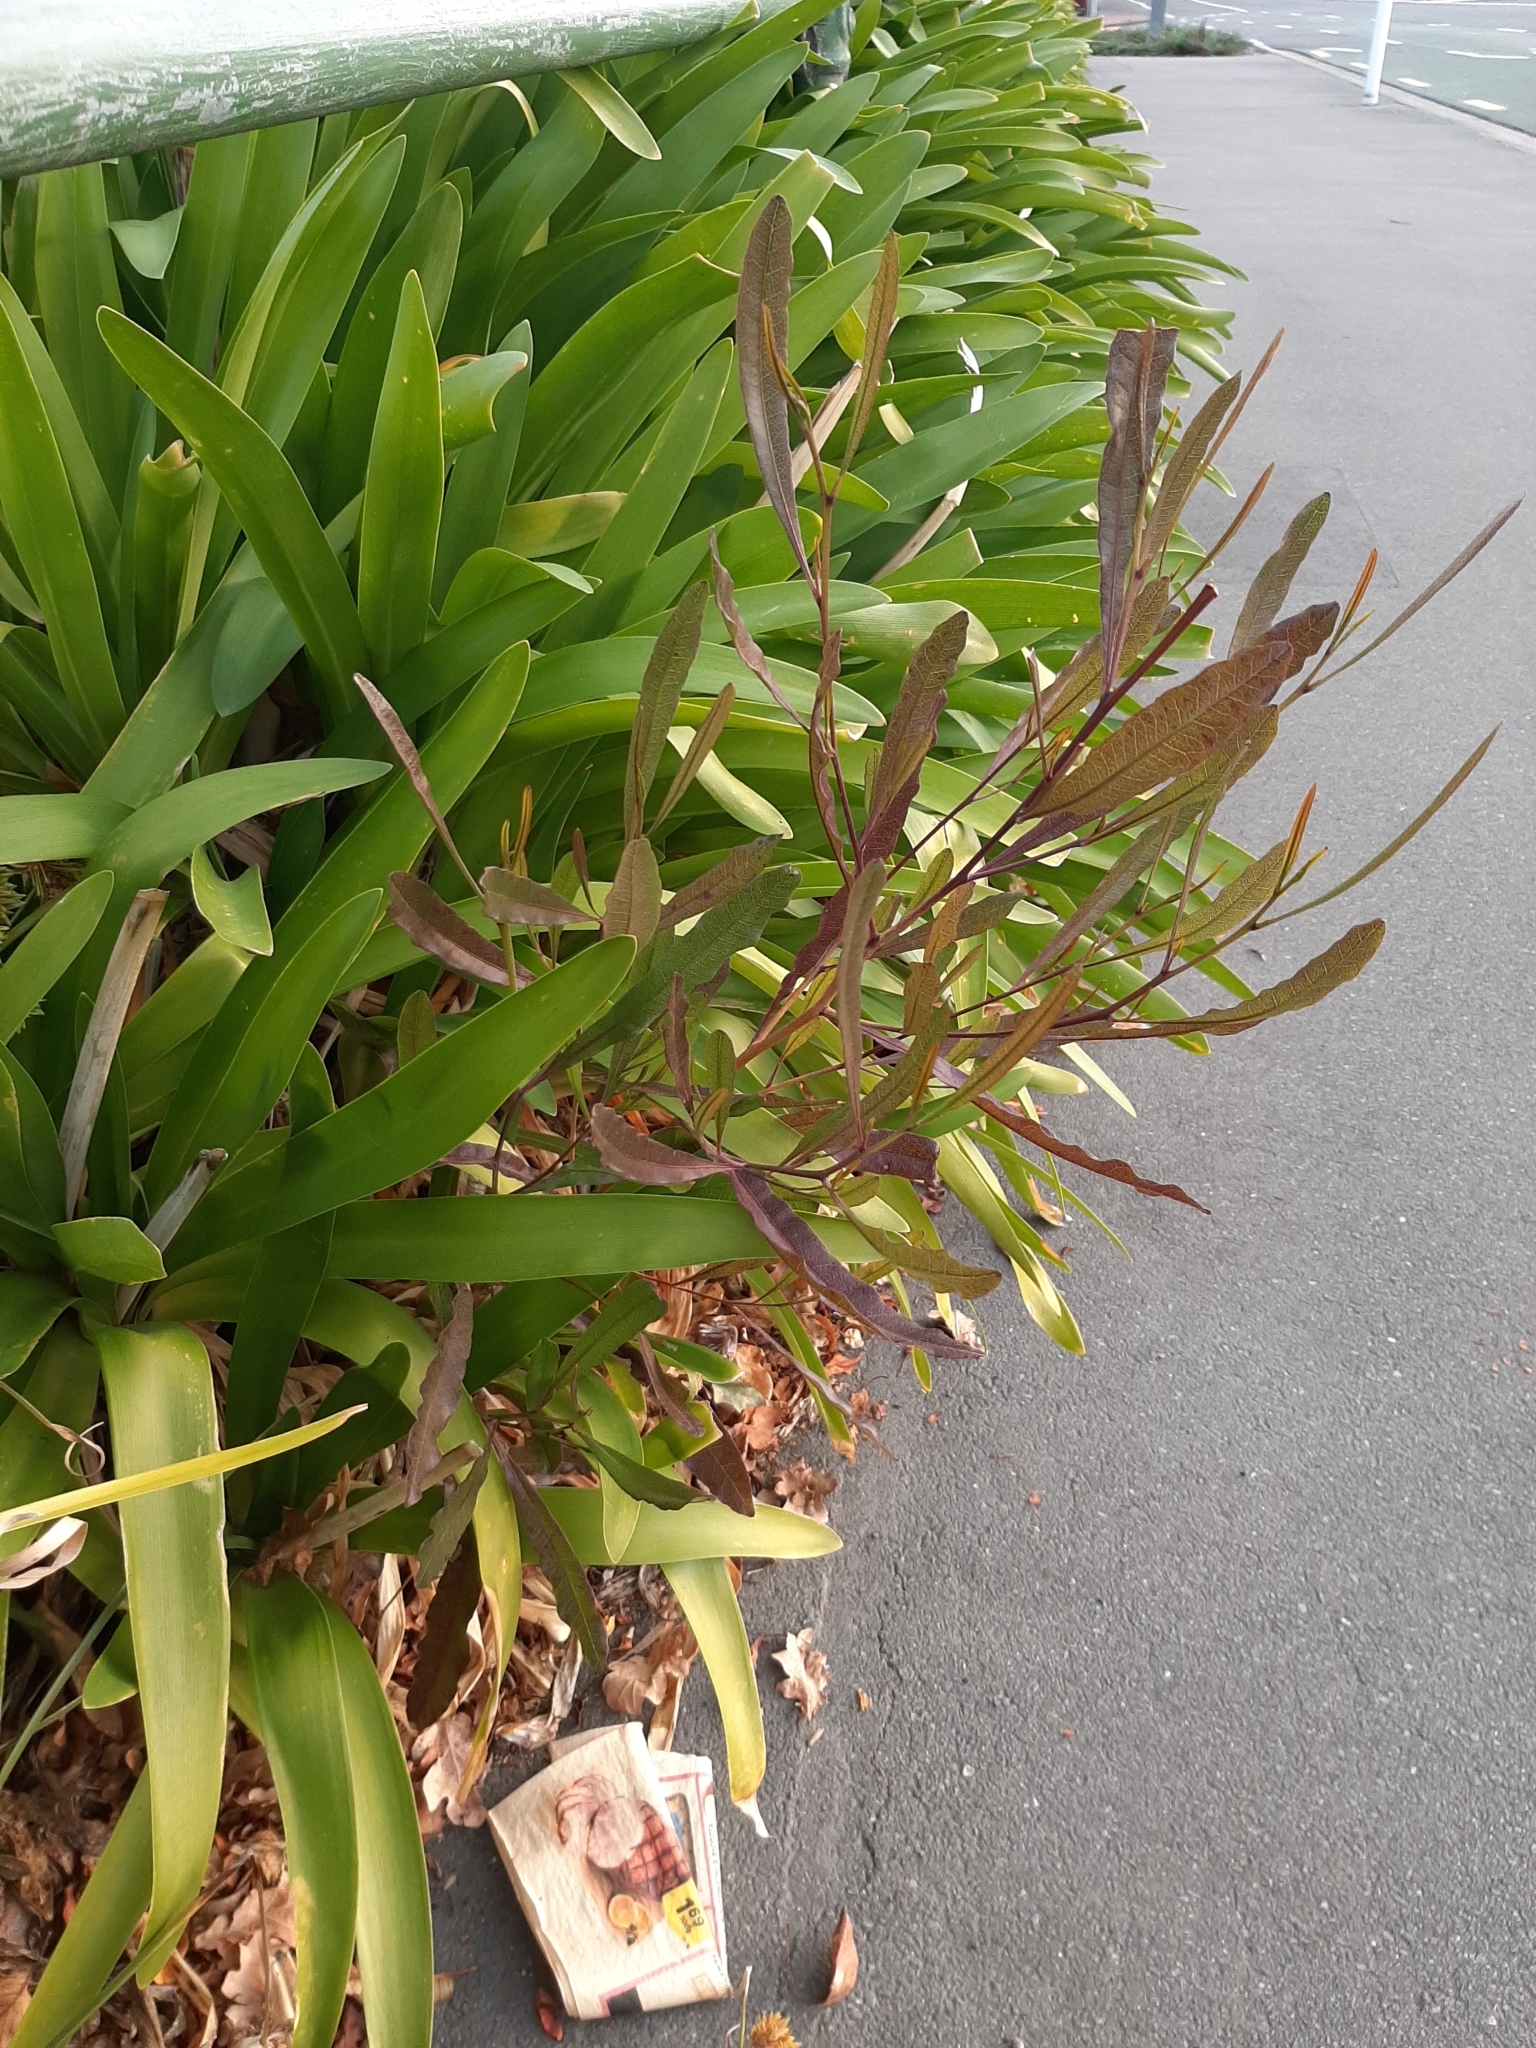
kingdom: Plantae
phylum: Tracheophyta
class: Magnoliopsida
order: Sapindales
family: Sapindaceae
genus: Dodonaea
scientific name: Dodonaea viscosa
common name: Hopbush
